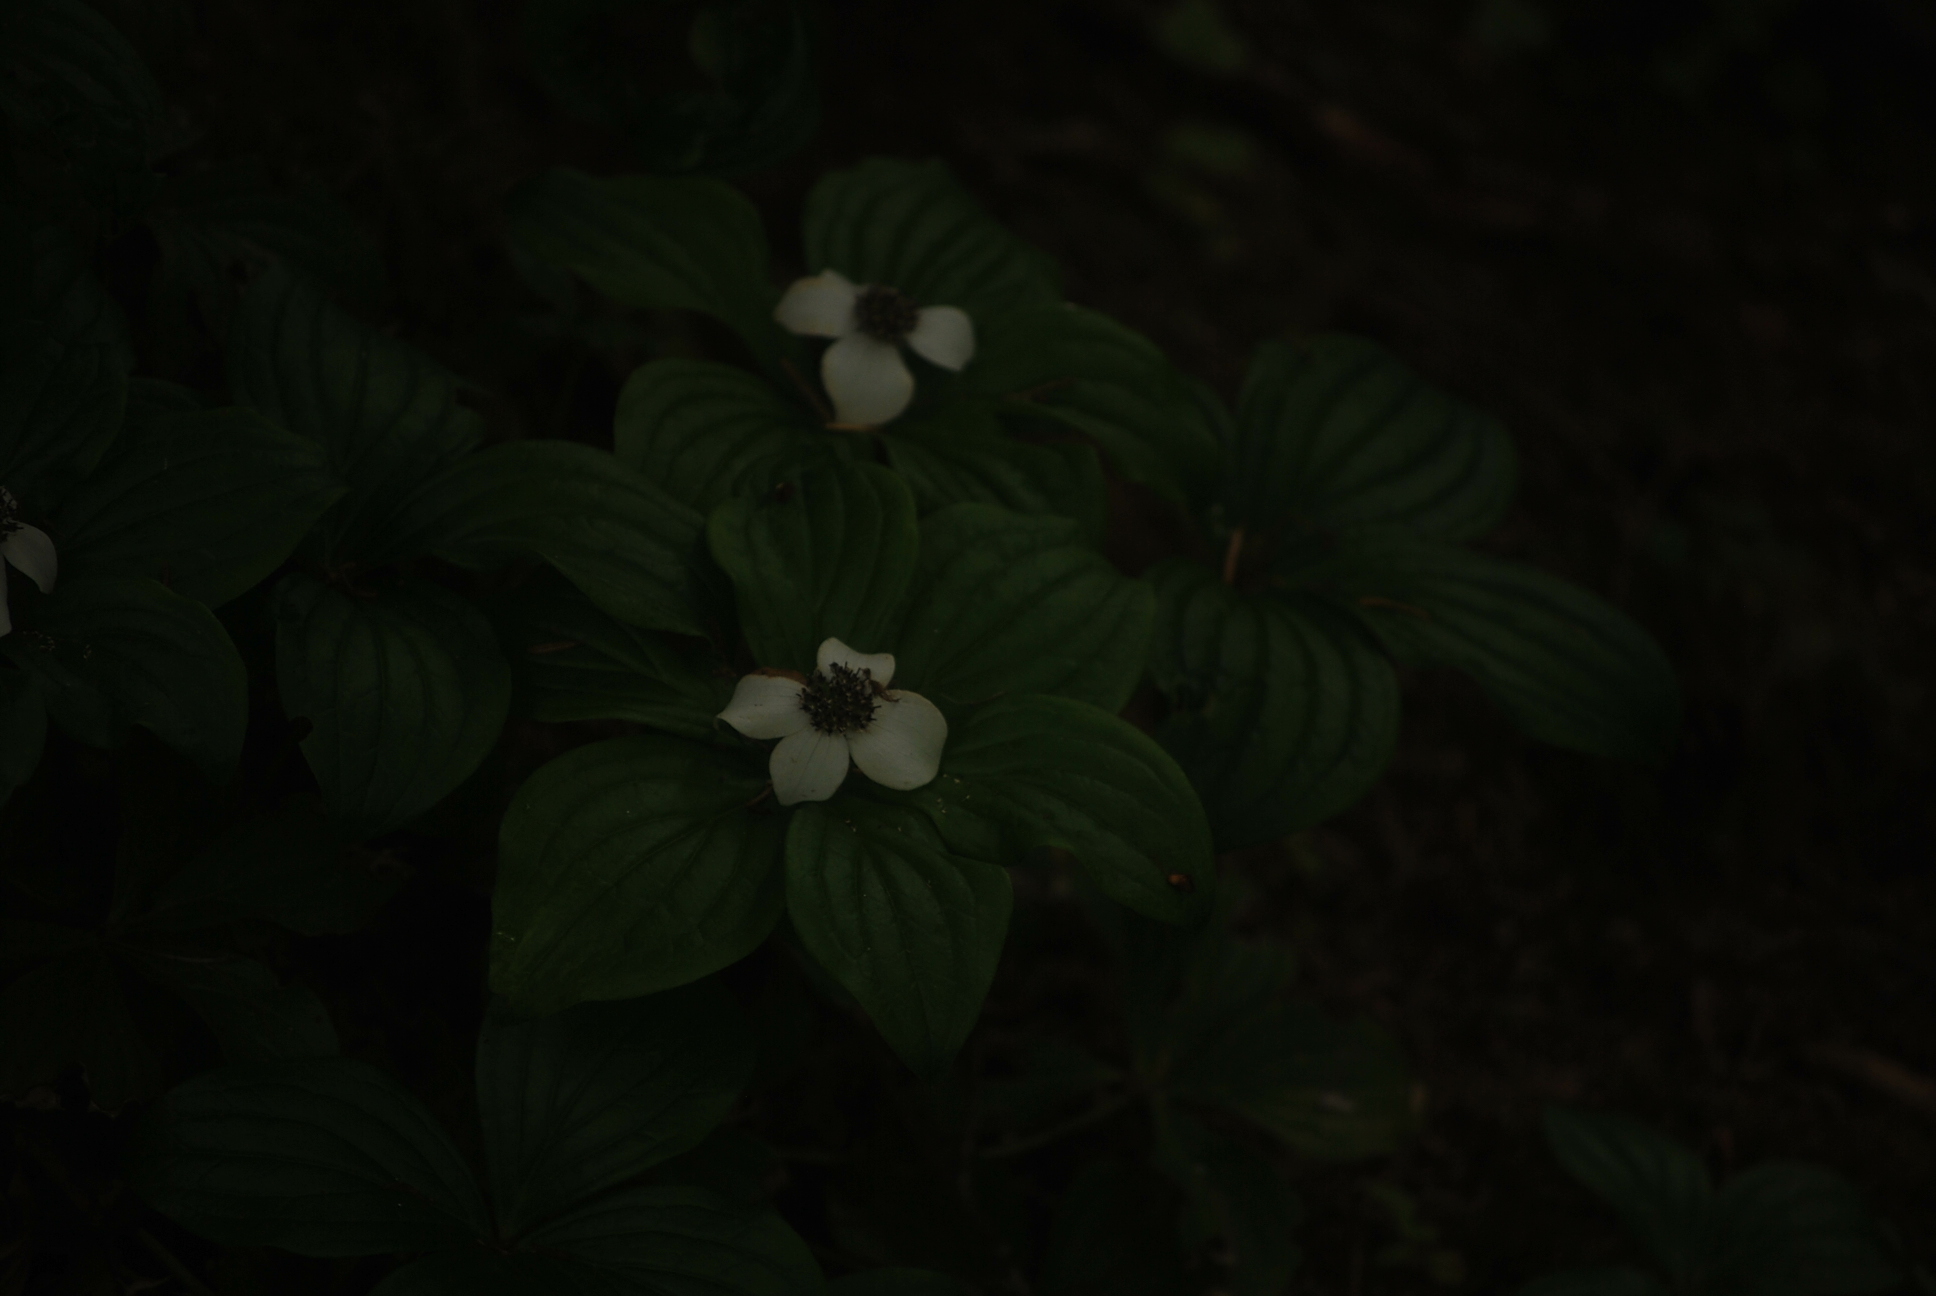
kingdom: Plantae
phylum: Tracheophyta
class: Magnoliopsida
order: Cornales
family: Cornaceae
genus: Cornus
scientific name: Cornus unalaschkensis
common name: Alaska bunchberry
